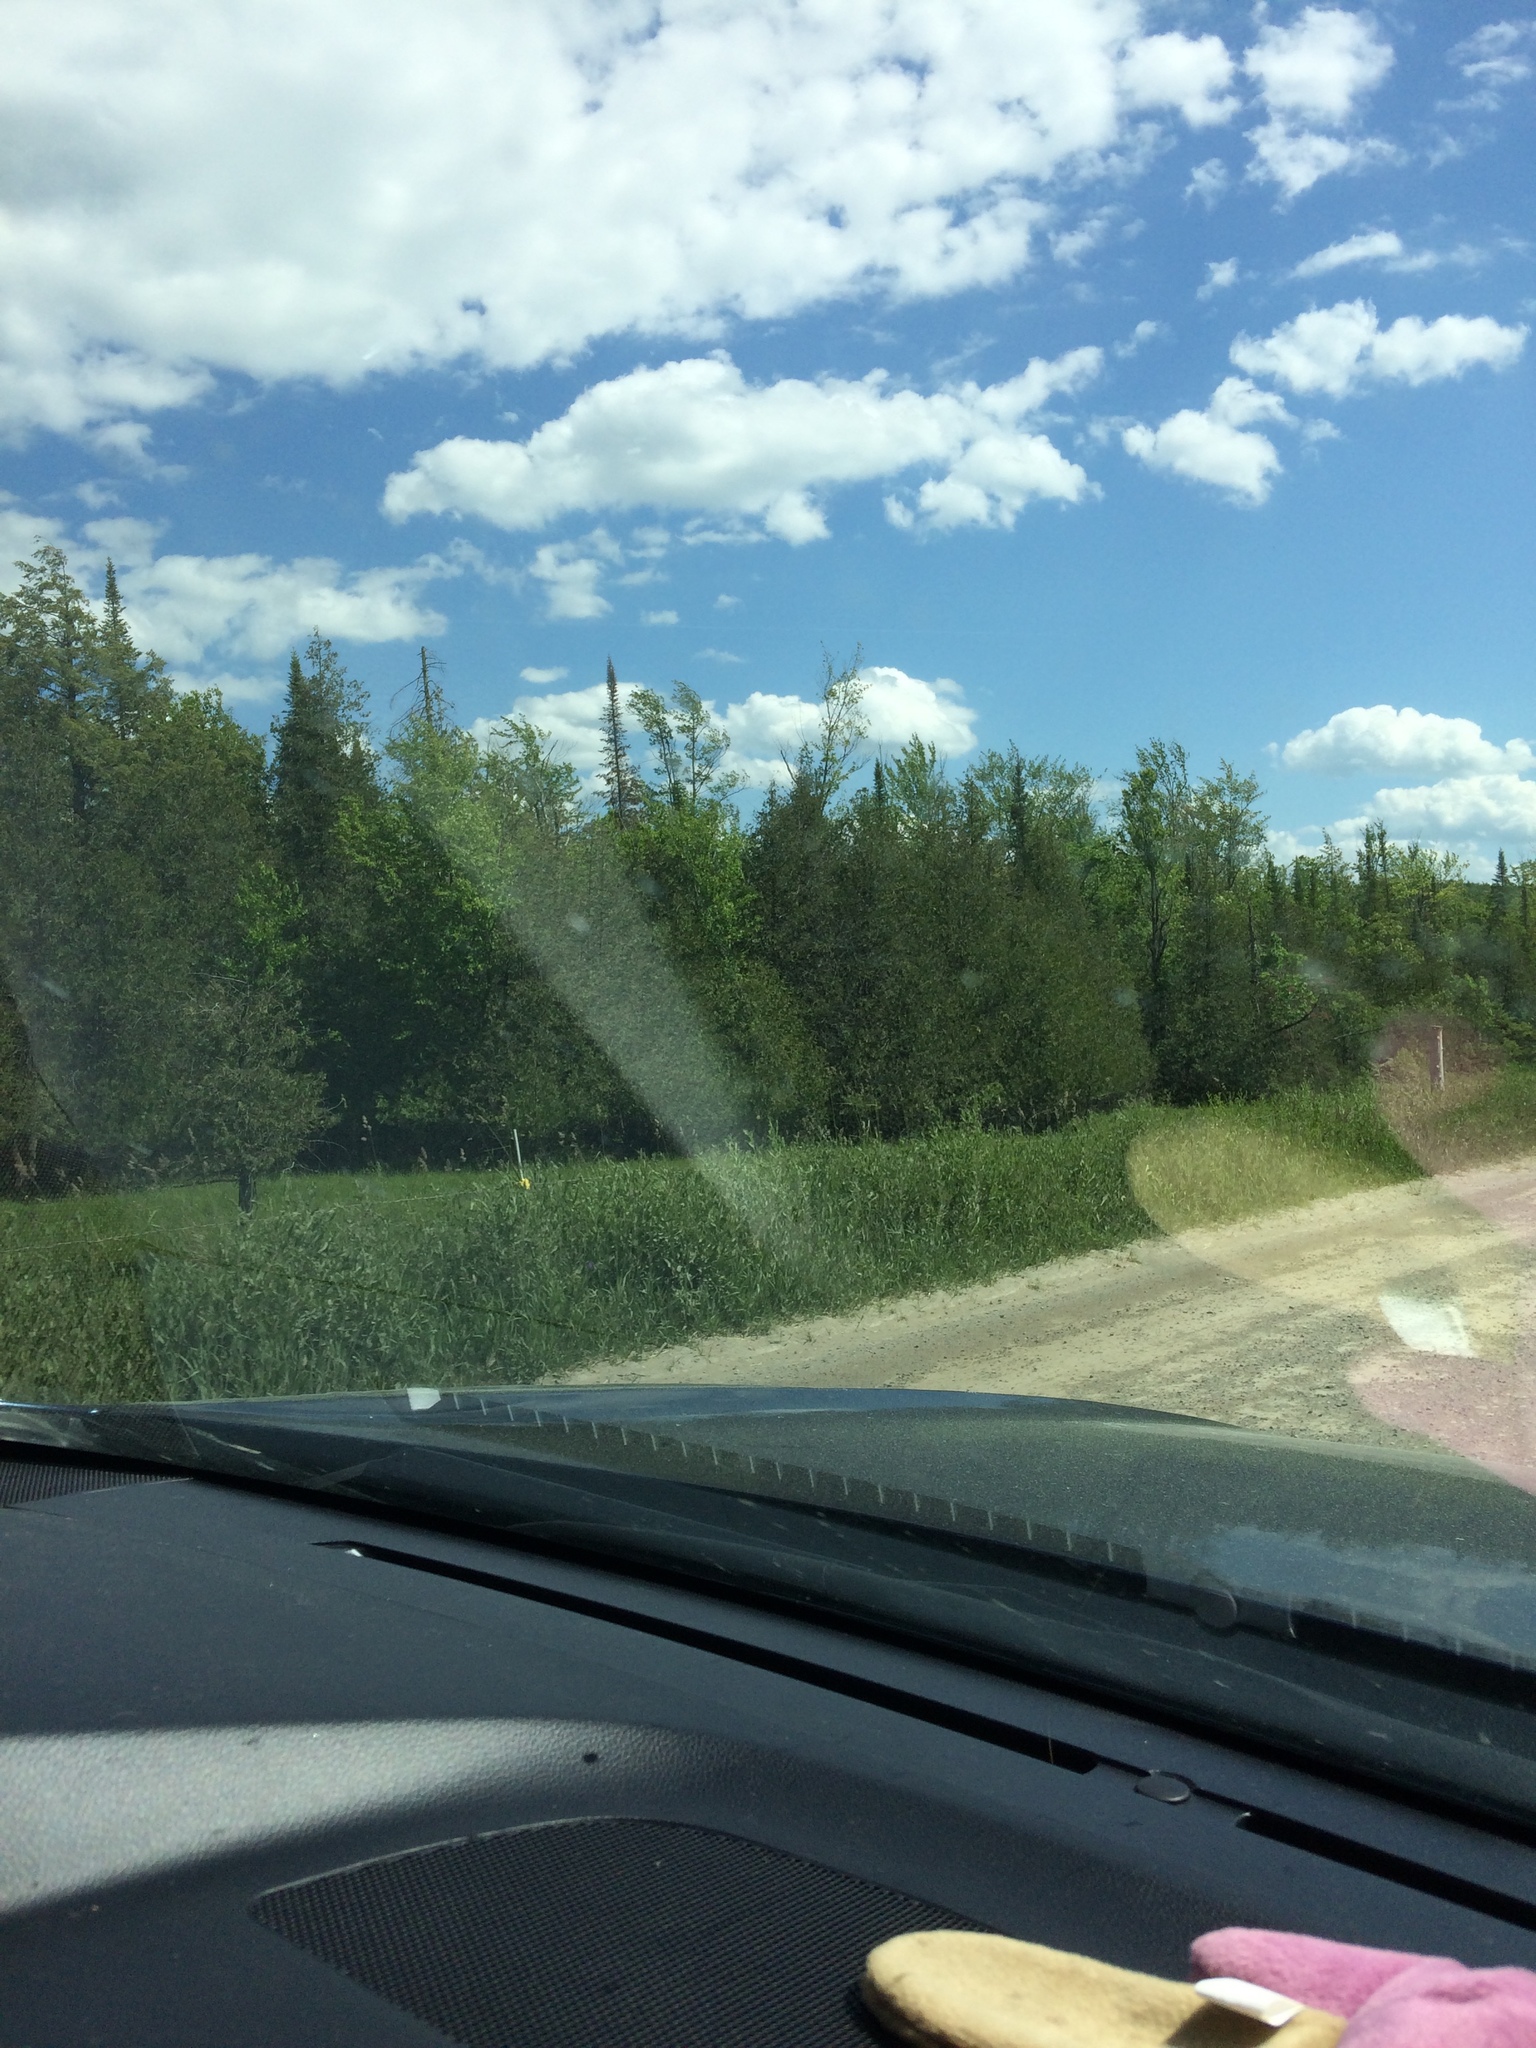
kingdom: Plantae
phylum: Tracheophyta
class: Pinopsida
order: Pinales
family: Pinaceae
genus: Abies
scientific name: Abies balsamea
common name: Balsam fir
